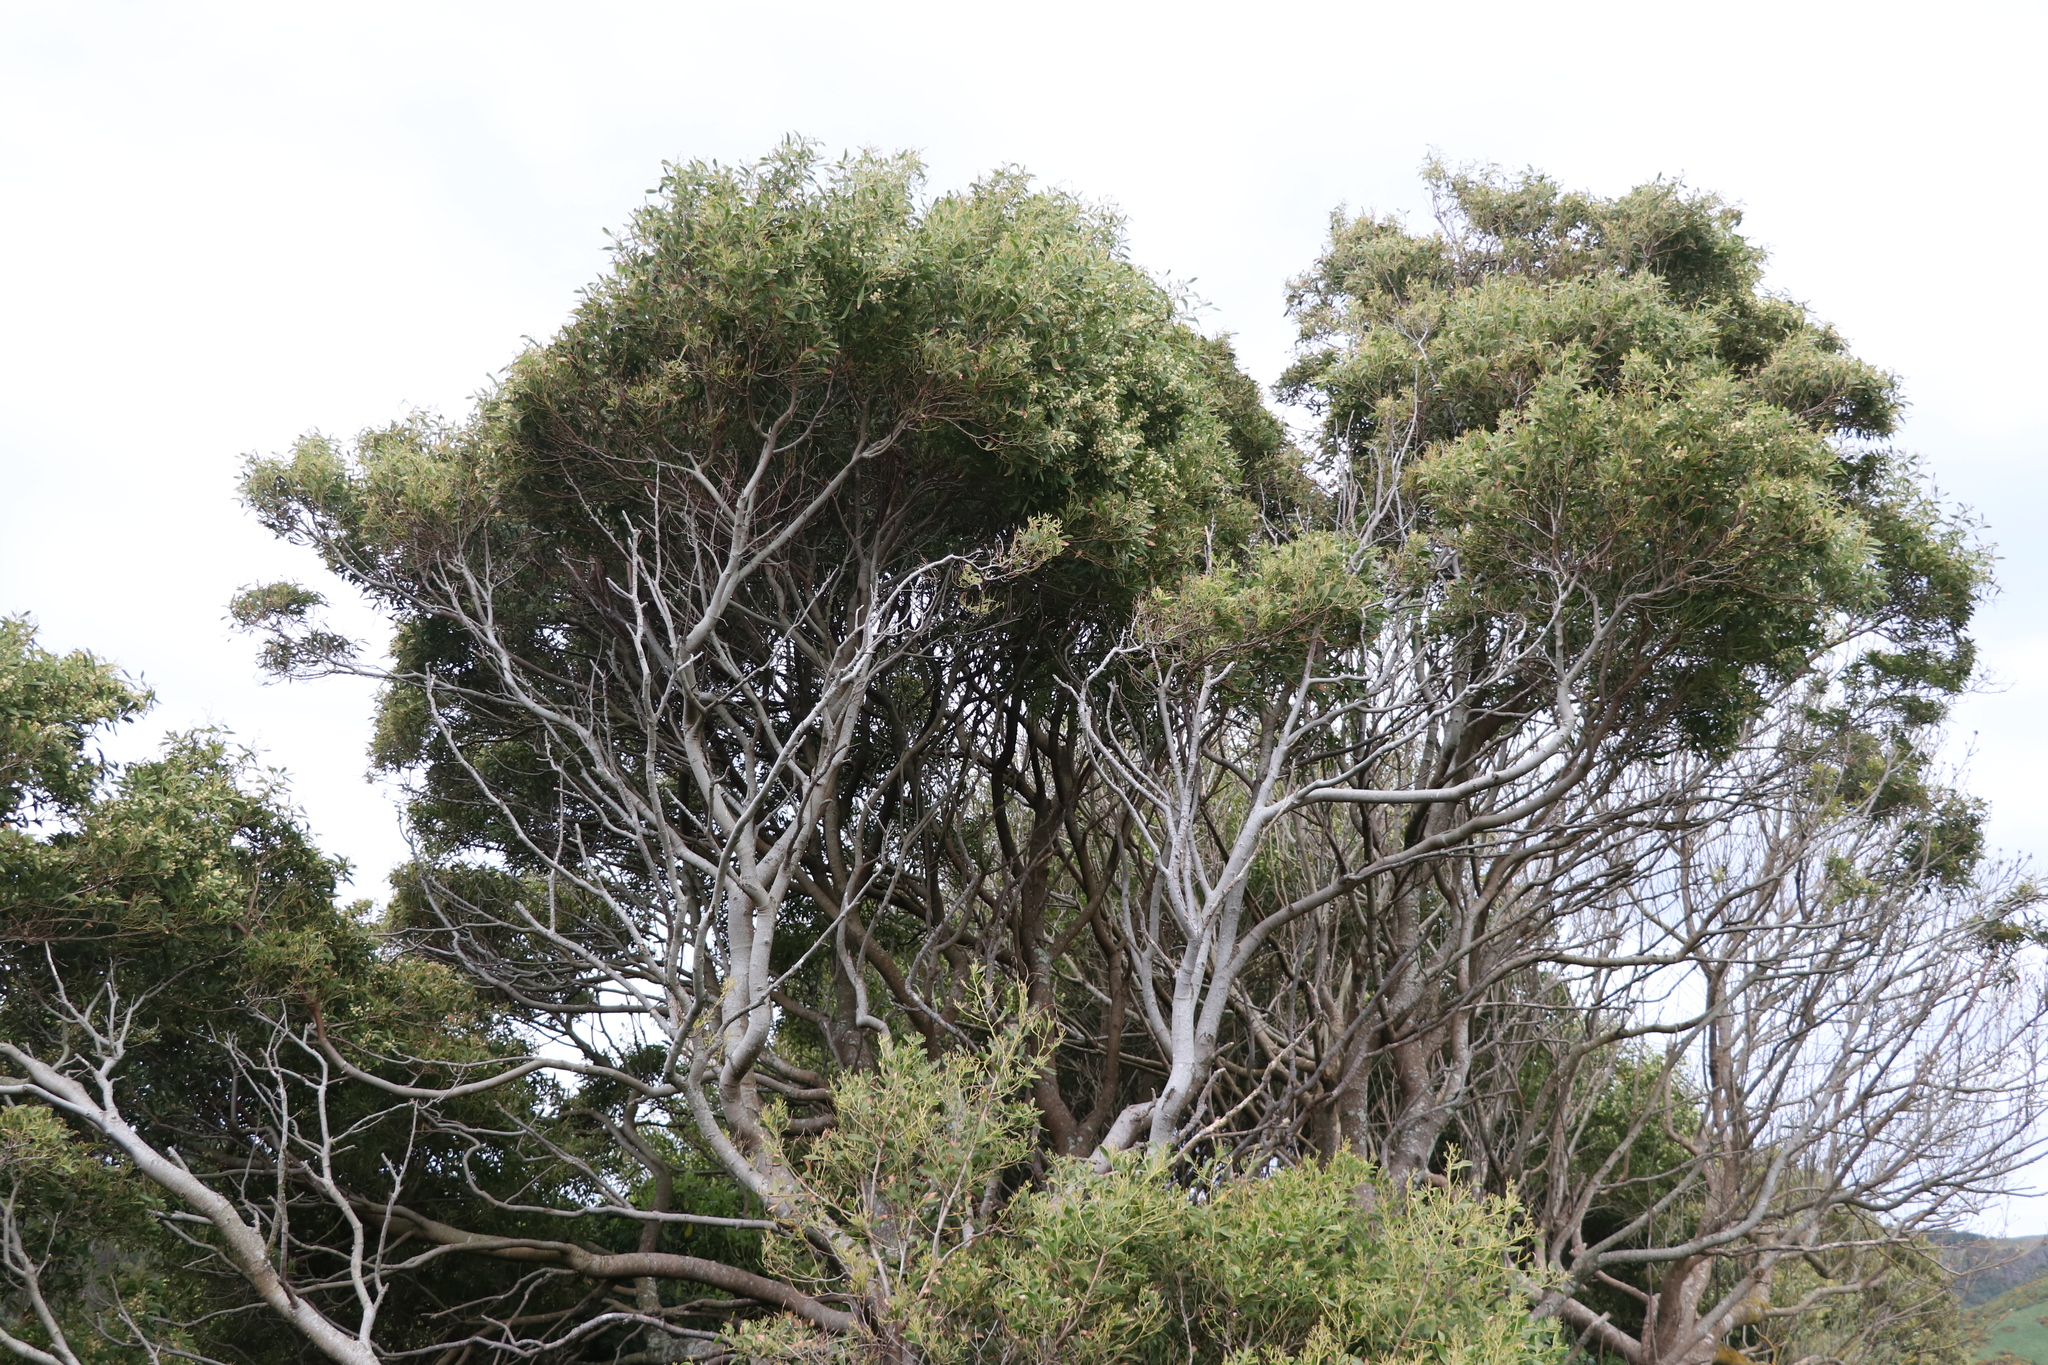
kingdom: Plantae
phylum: Tracheophyta
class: Magnoliopsida
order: Fabales
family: Fabaceae
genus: Acacia
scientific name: Acacia melanoxylon
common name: Blackwood
